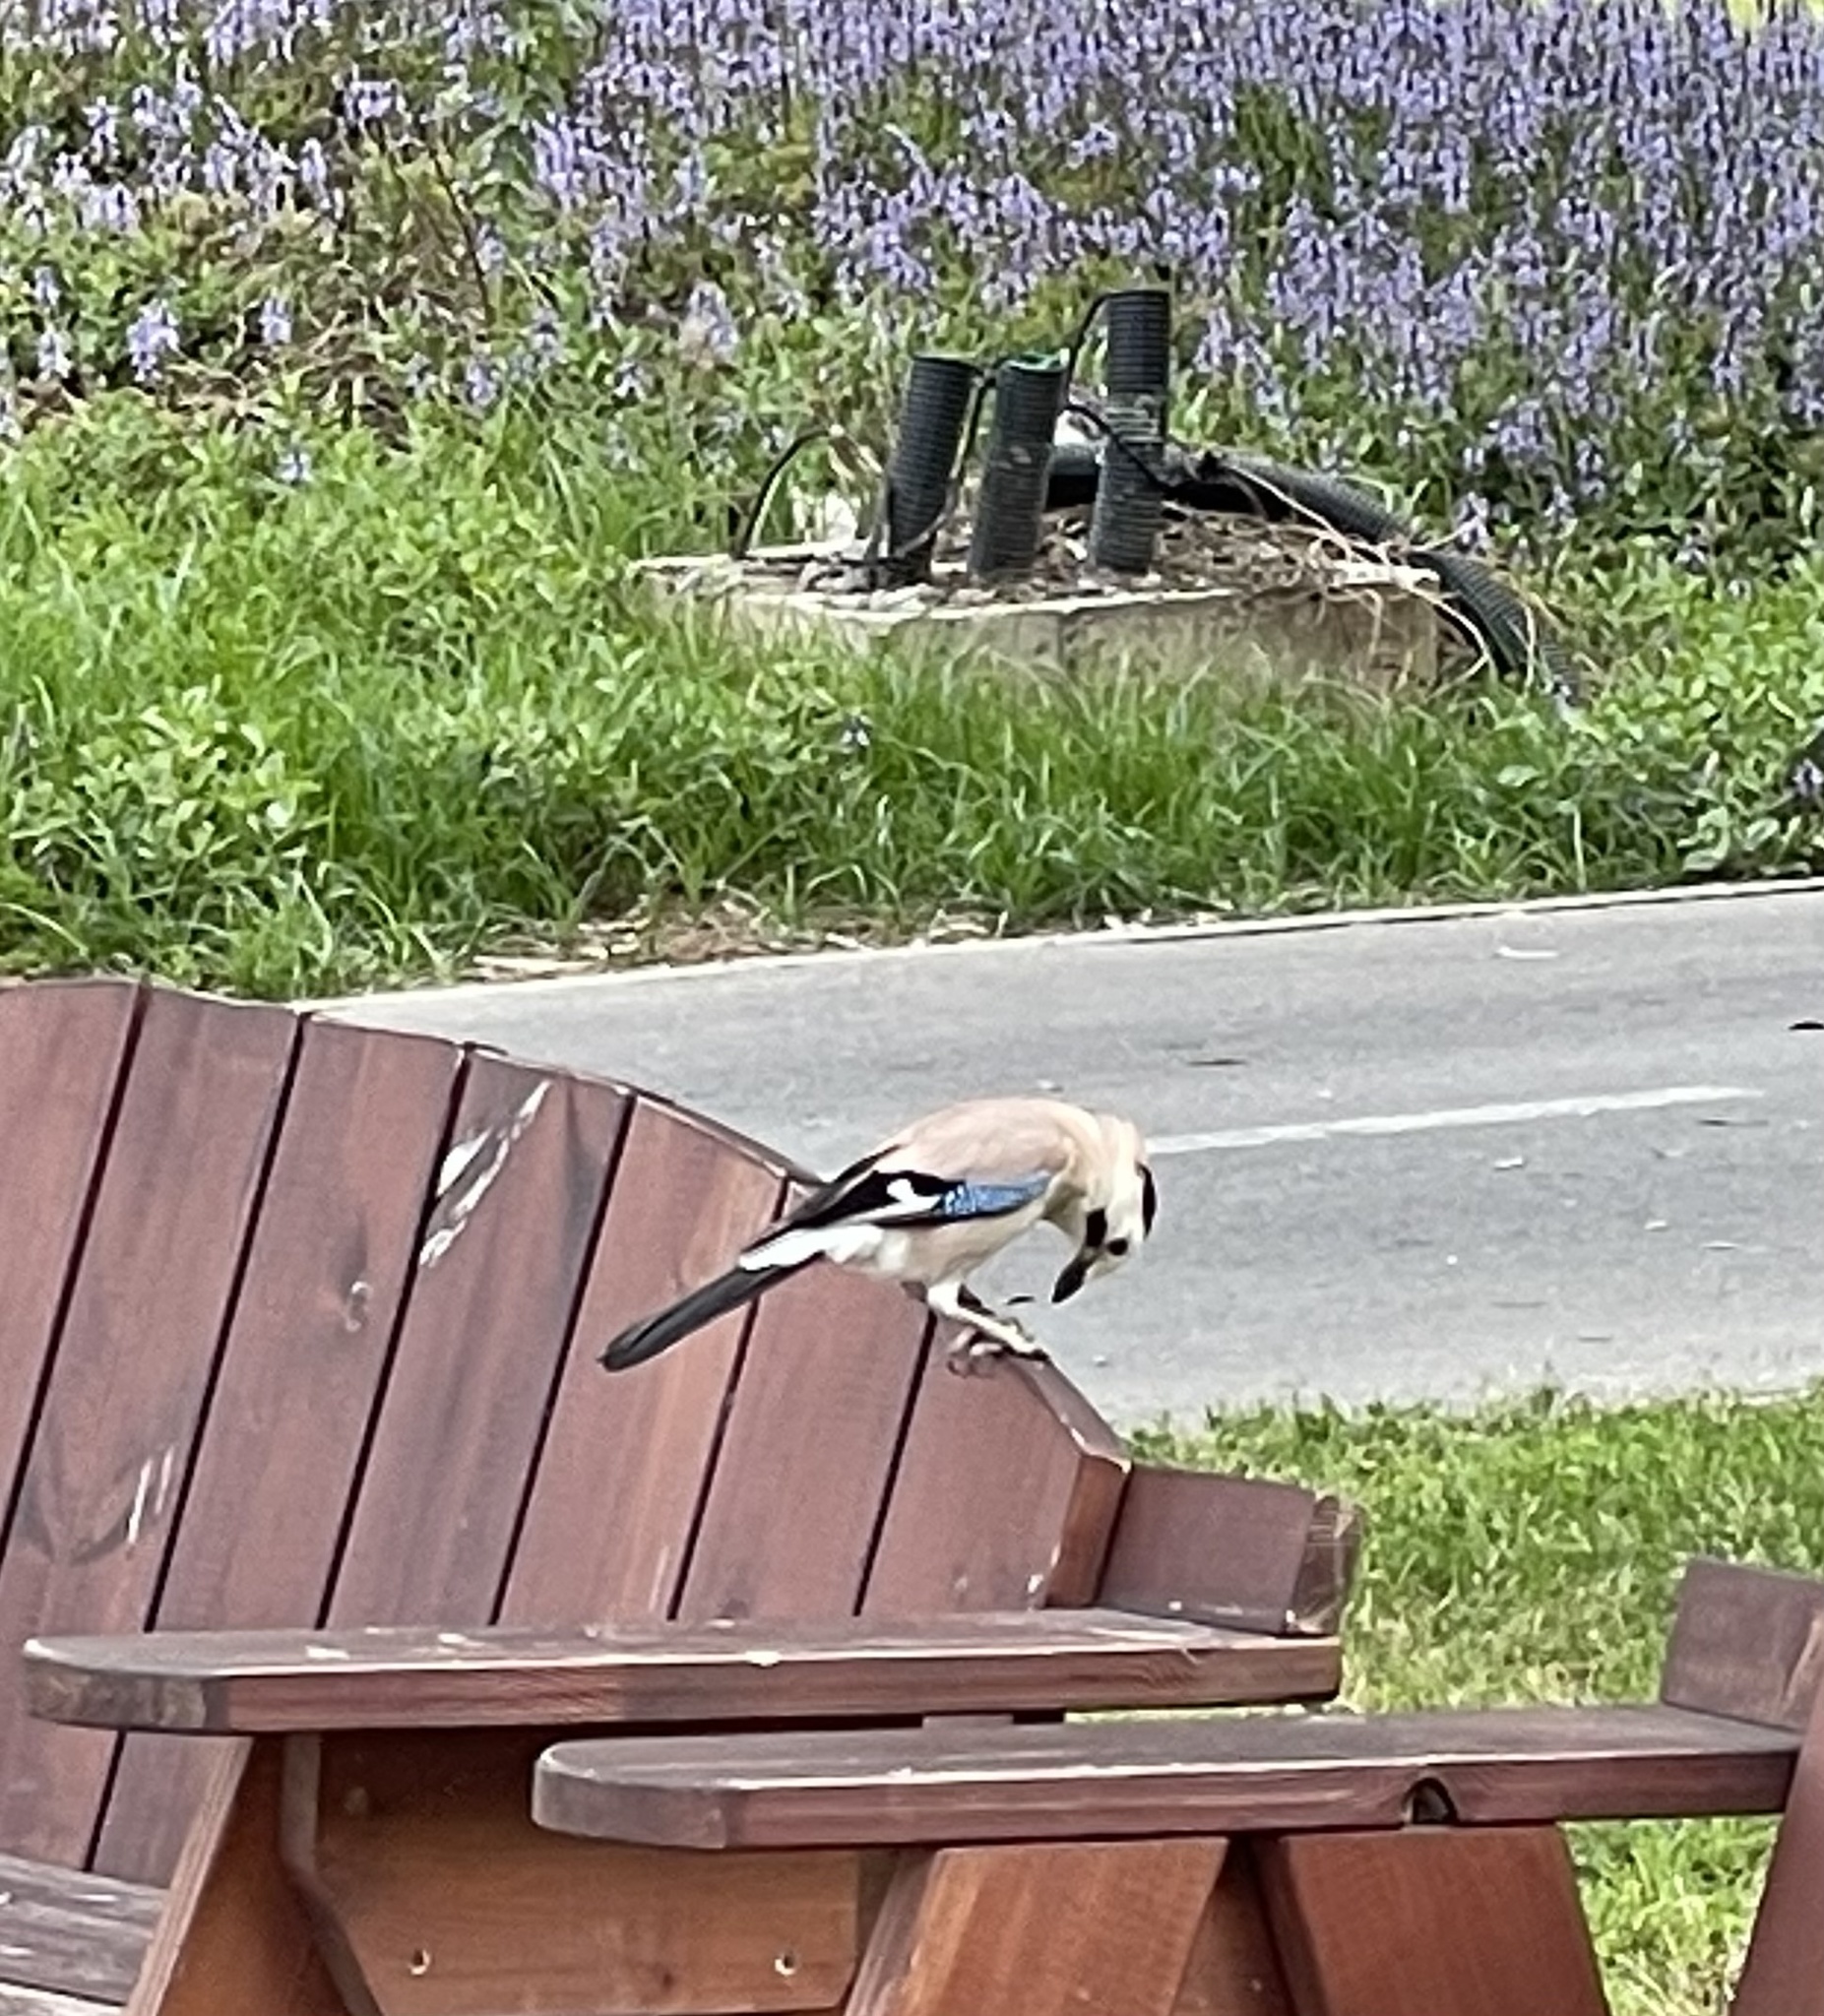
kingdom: Animalia
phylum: Chordata
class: Aves
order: Passeriformes
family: Corvidae
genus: Garrulus
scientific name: Garrulus glandarius
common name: Eurasian jay
